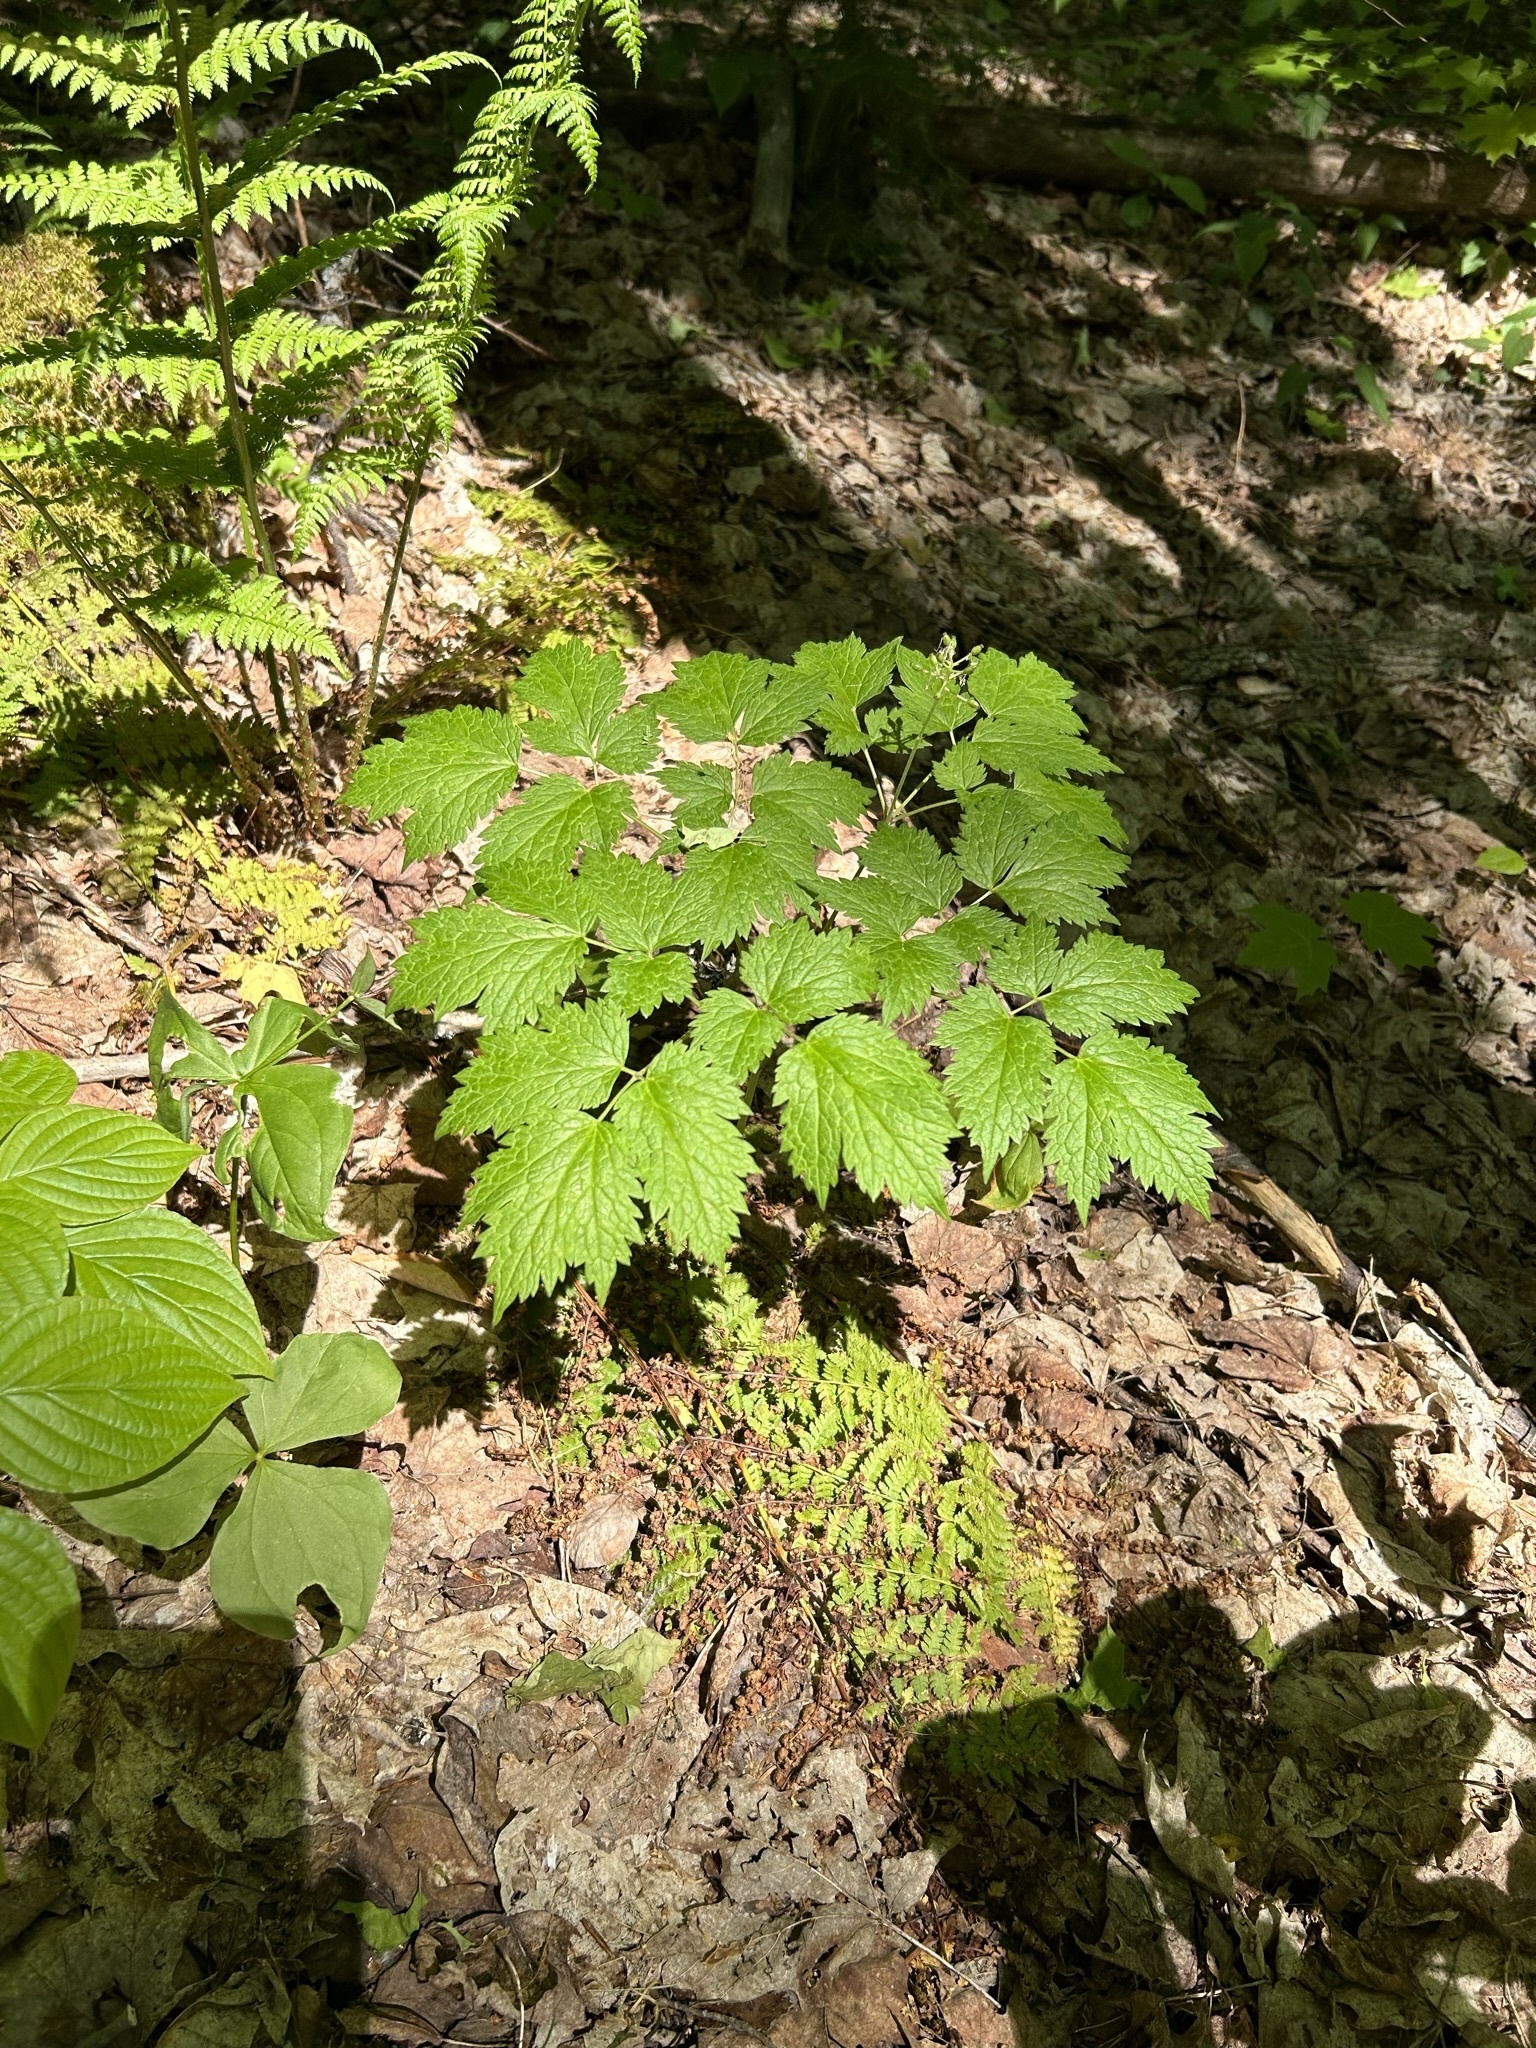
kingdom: Plantae
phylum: Tracheophyta
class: Magnoliopsida
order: Ranunculales
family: Ranunculaceae
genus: Actaea
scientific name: Actaea rubra
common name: Red baneberry
